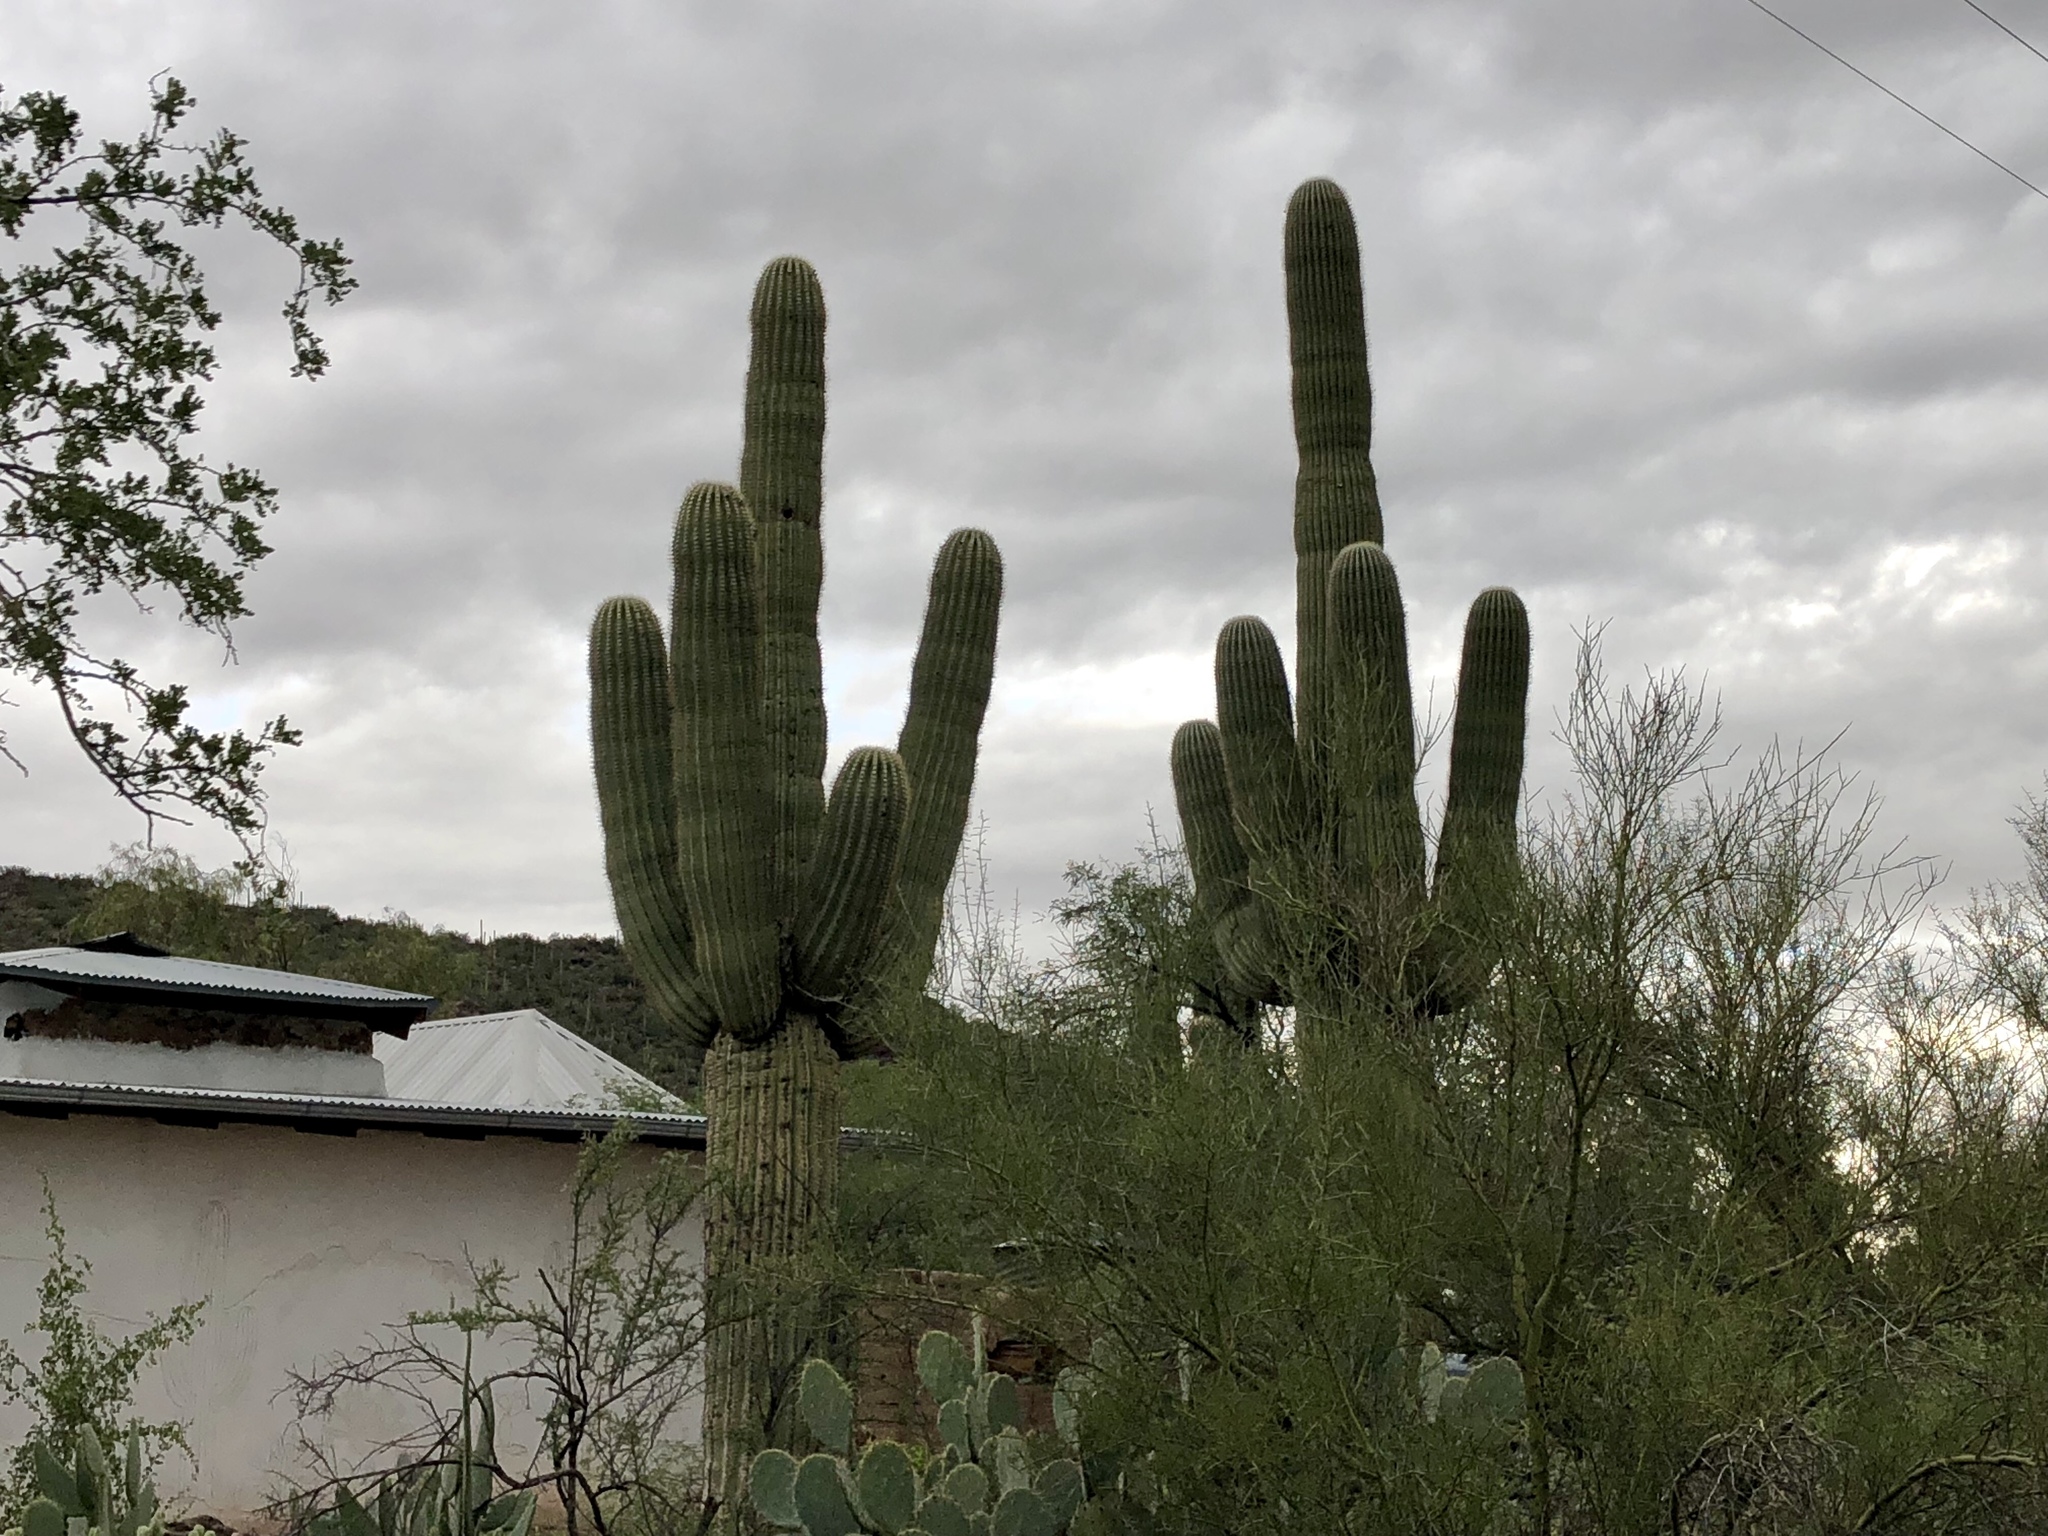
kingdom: Plantae
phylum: Tracheophyta
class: Magnoliopsida
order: Caryophyllales
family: Cactaceae
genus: Carnegiea
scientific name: Carnegiea gigantea
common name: Saguaro
